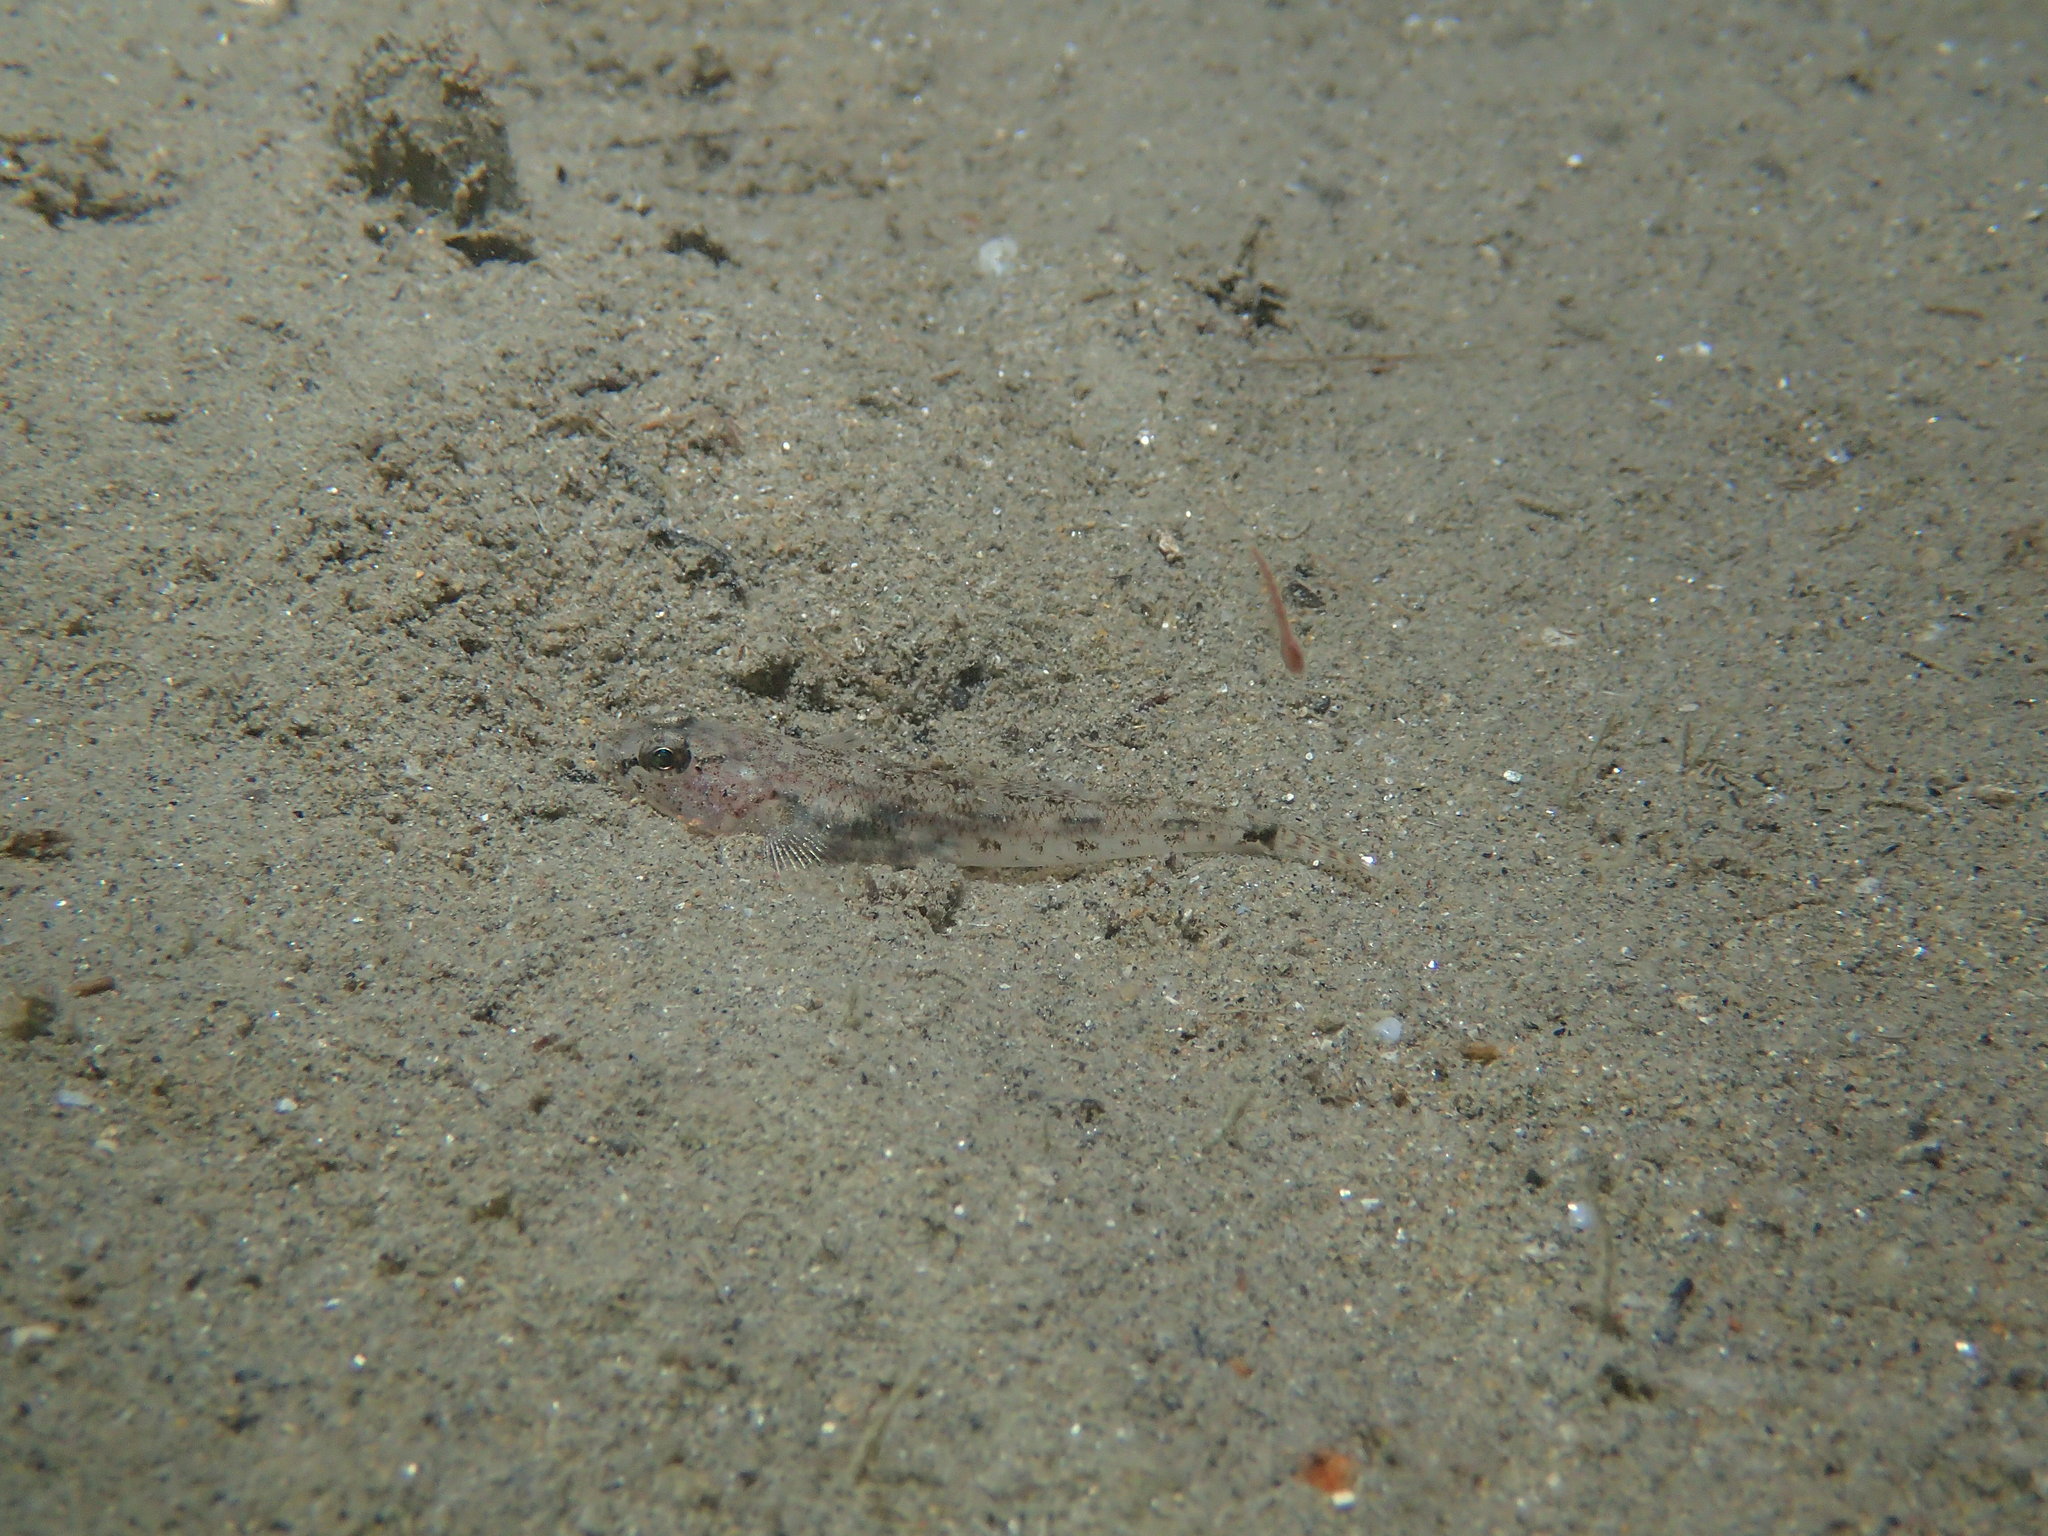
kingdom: Animalia
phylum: Chordata
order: Perciformes
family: Gobiidae
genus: Pomatoschistus
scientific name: Pomatoschistus minutus
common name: Sand goby
